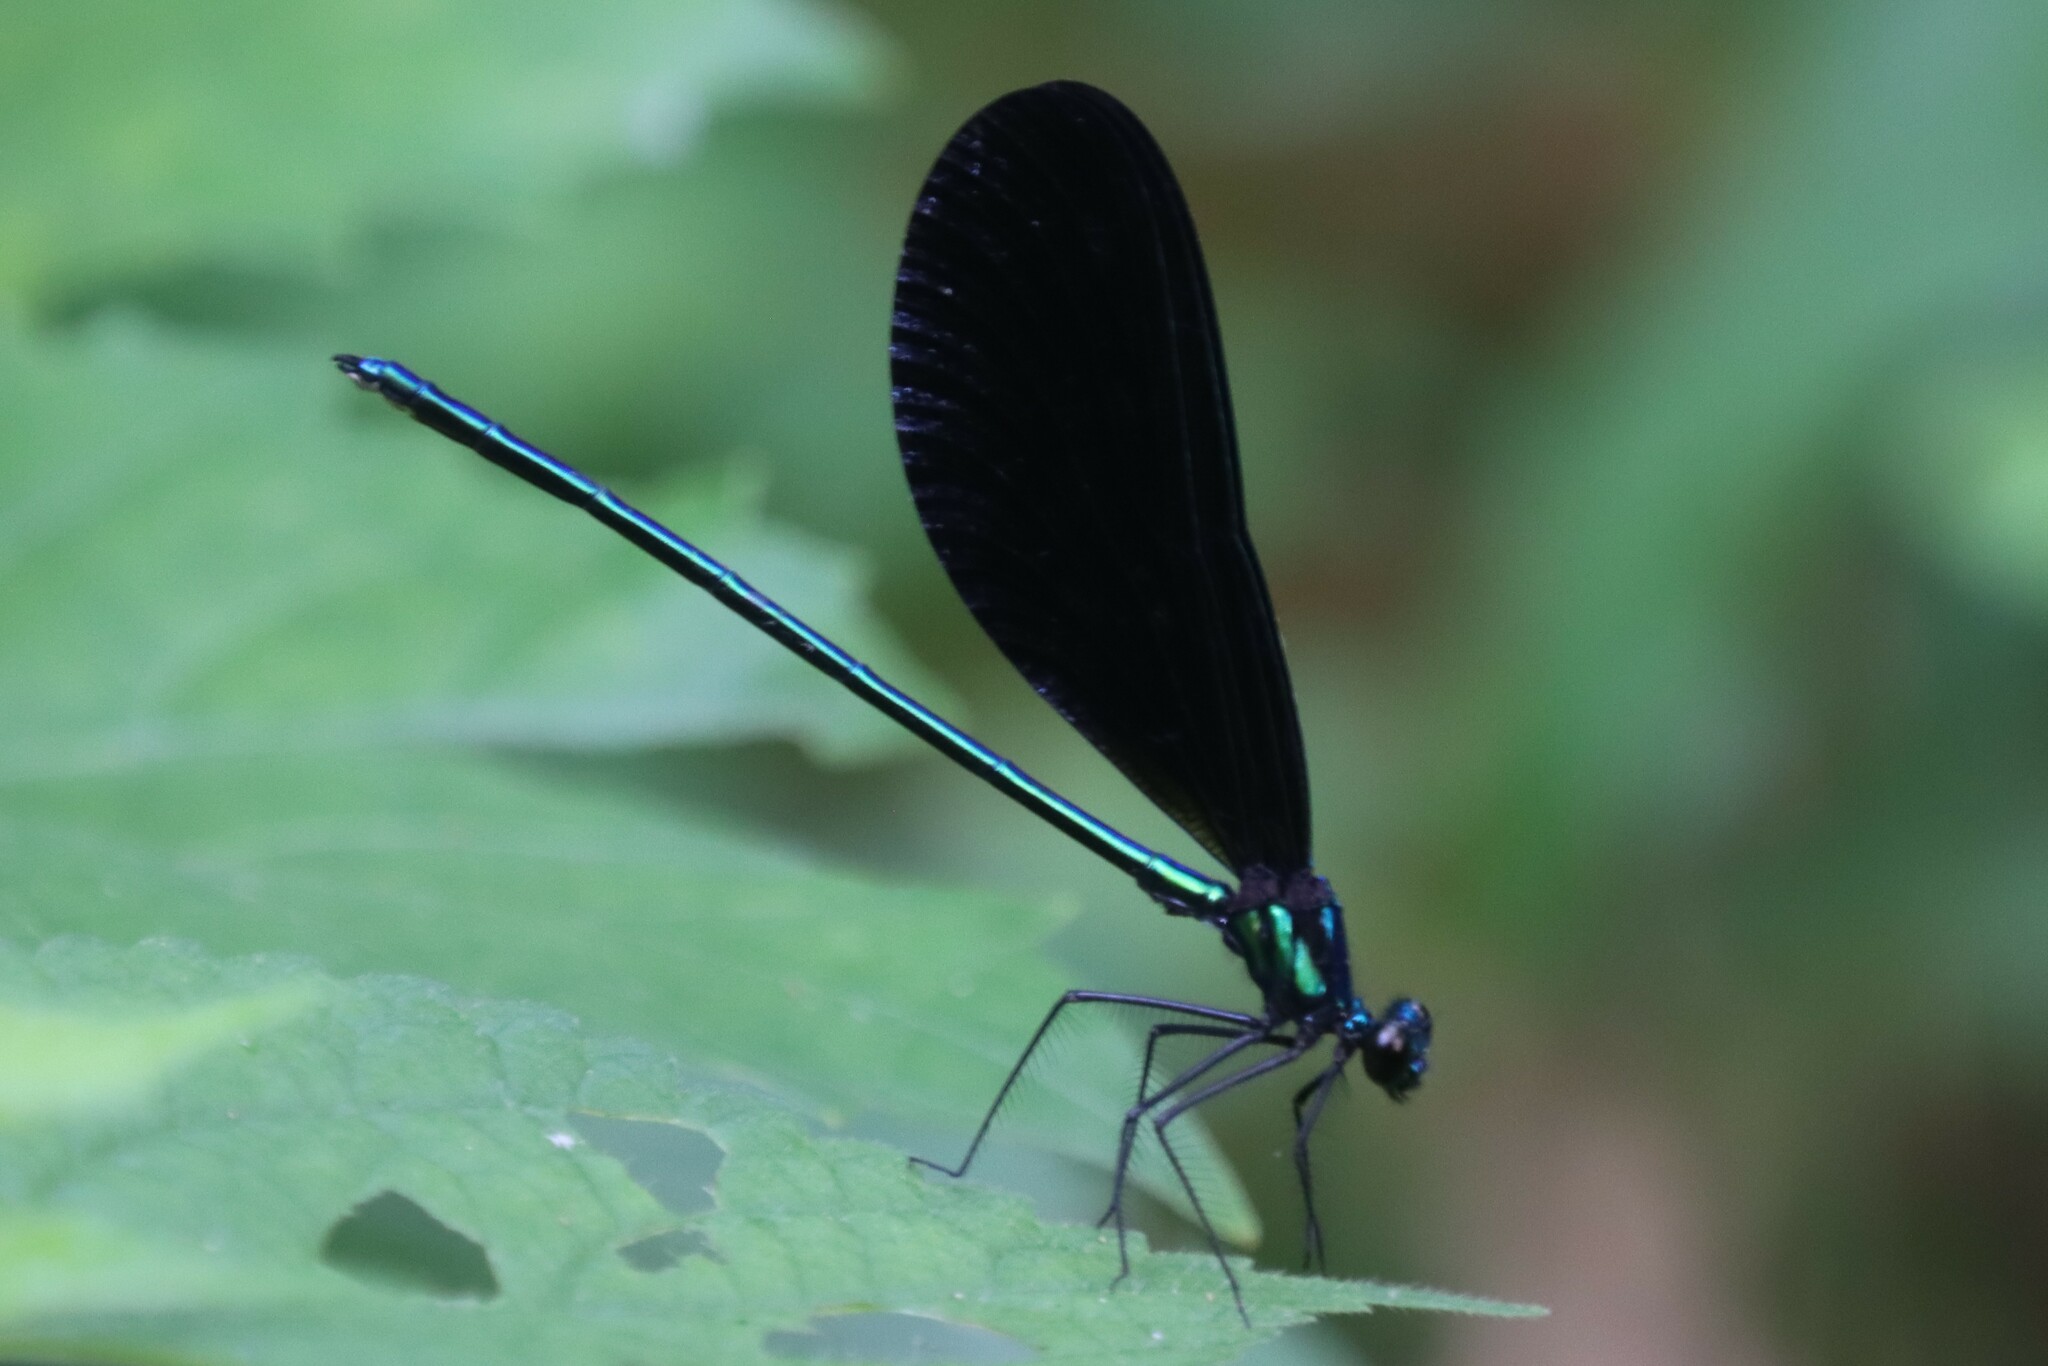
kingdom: Animalia
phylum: Arthropoda
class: Insecta
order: Odonata
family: Calopterygidae
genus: Calopteryx
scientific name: Calopteryx maculata
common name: Ebony jewelwing
